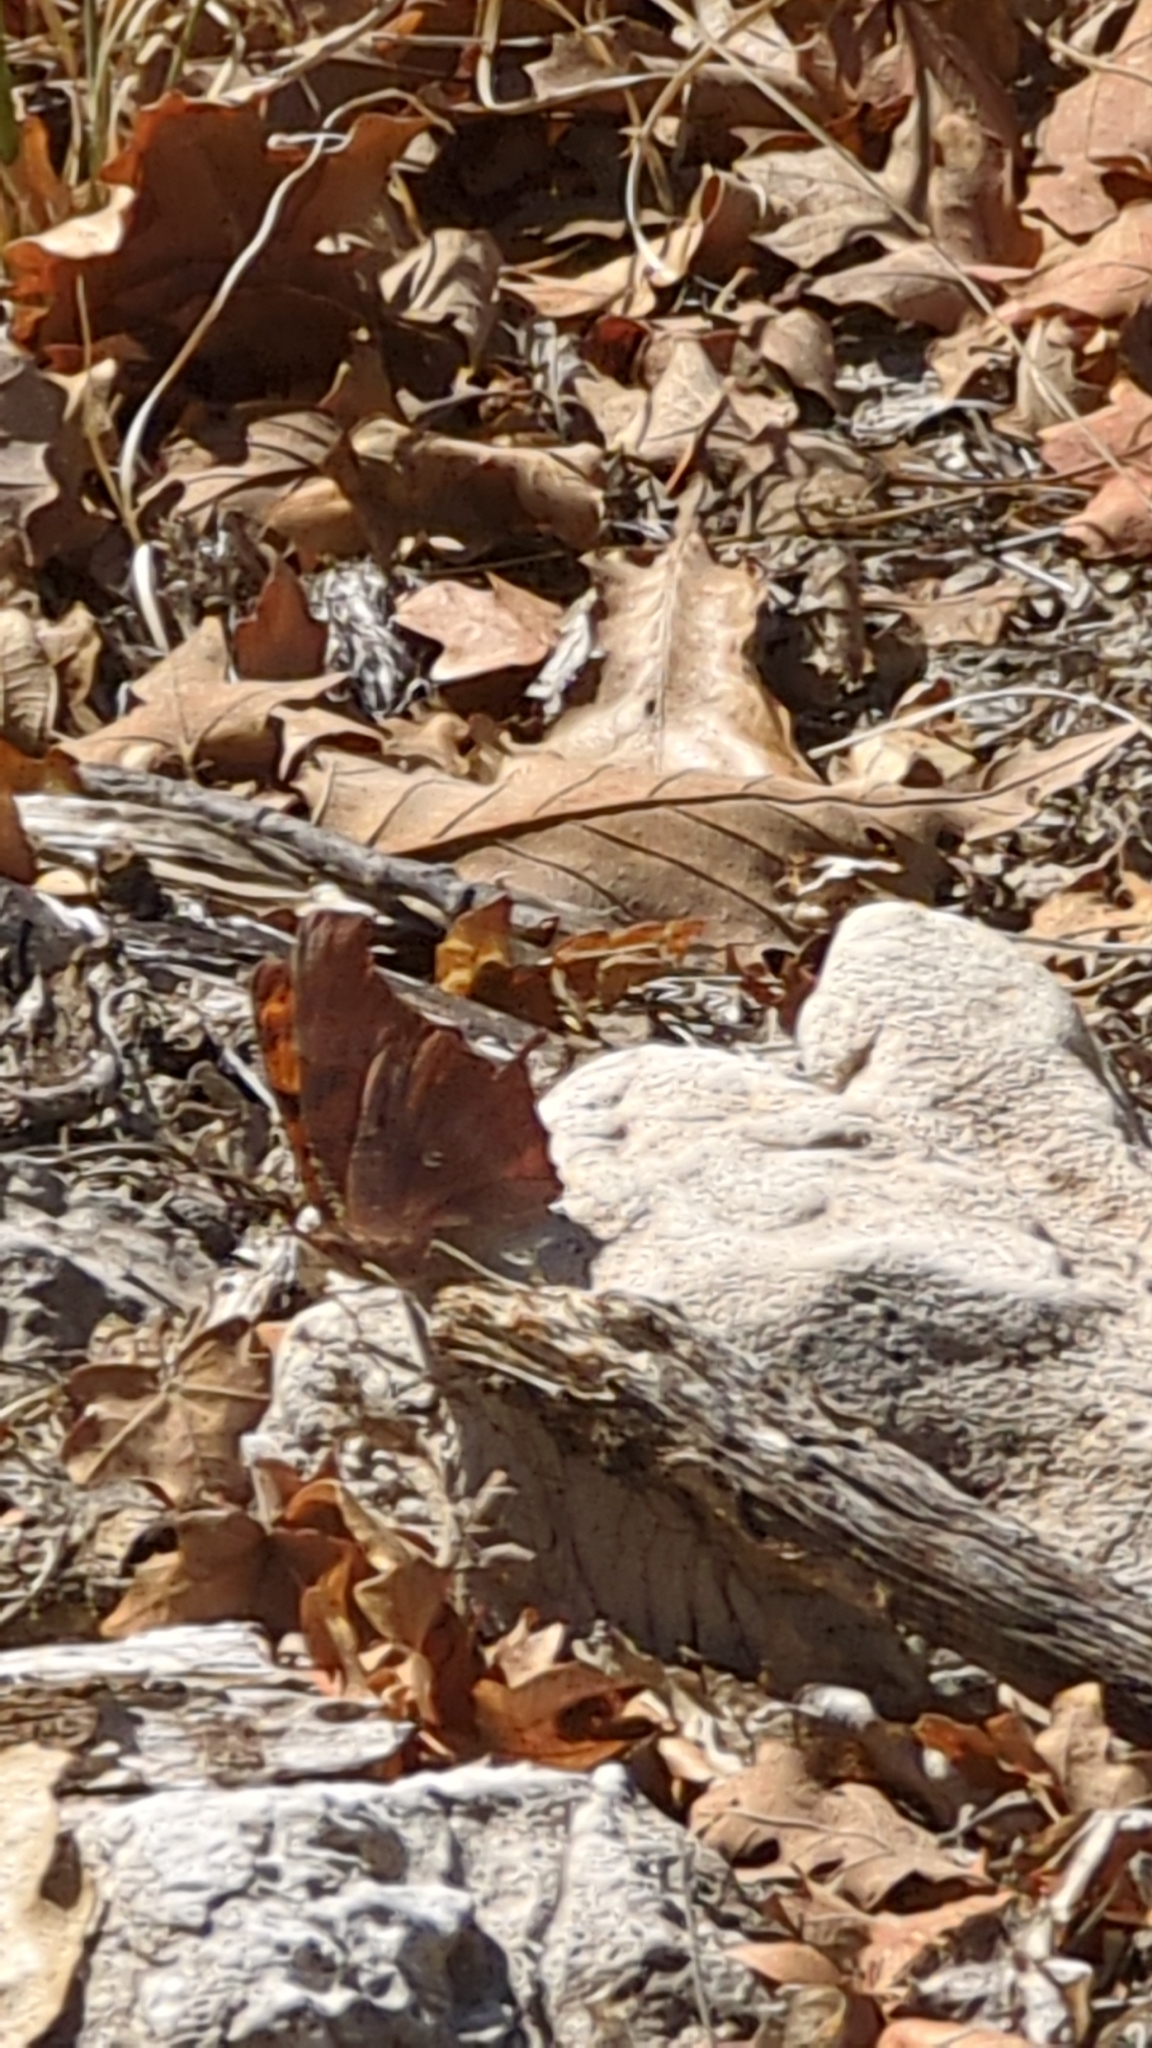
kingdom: Animalia
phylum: Arthropoda
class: Insecta
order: Lepidoptera
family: Nymphalidae
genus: Polygonia
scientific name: Polygonia interrogationis
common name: Question mark
